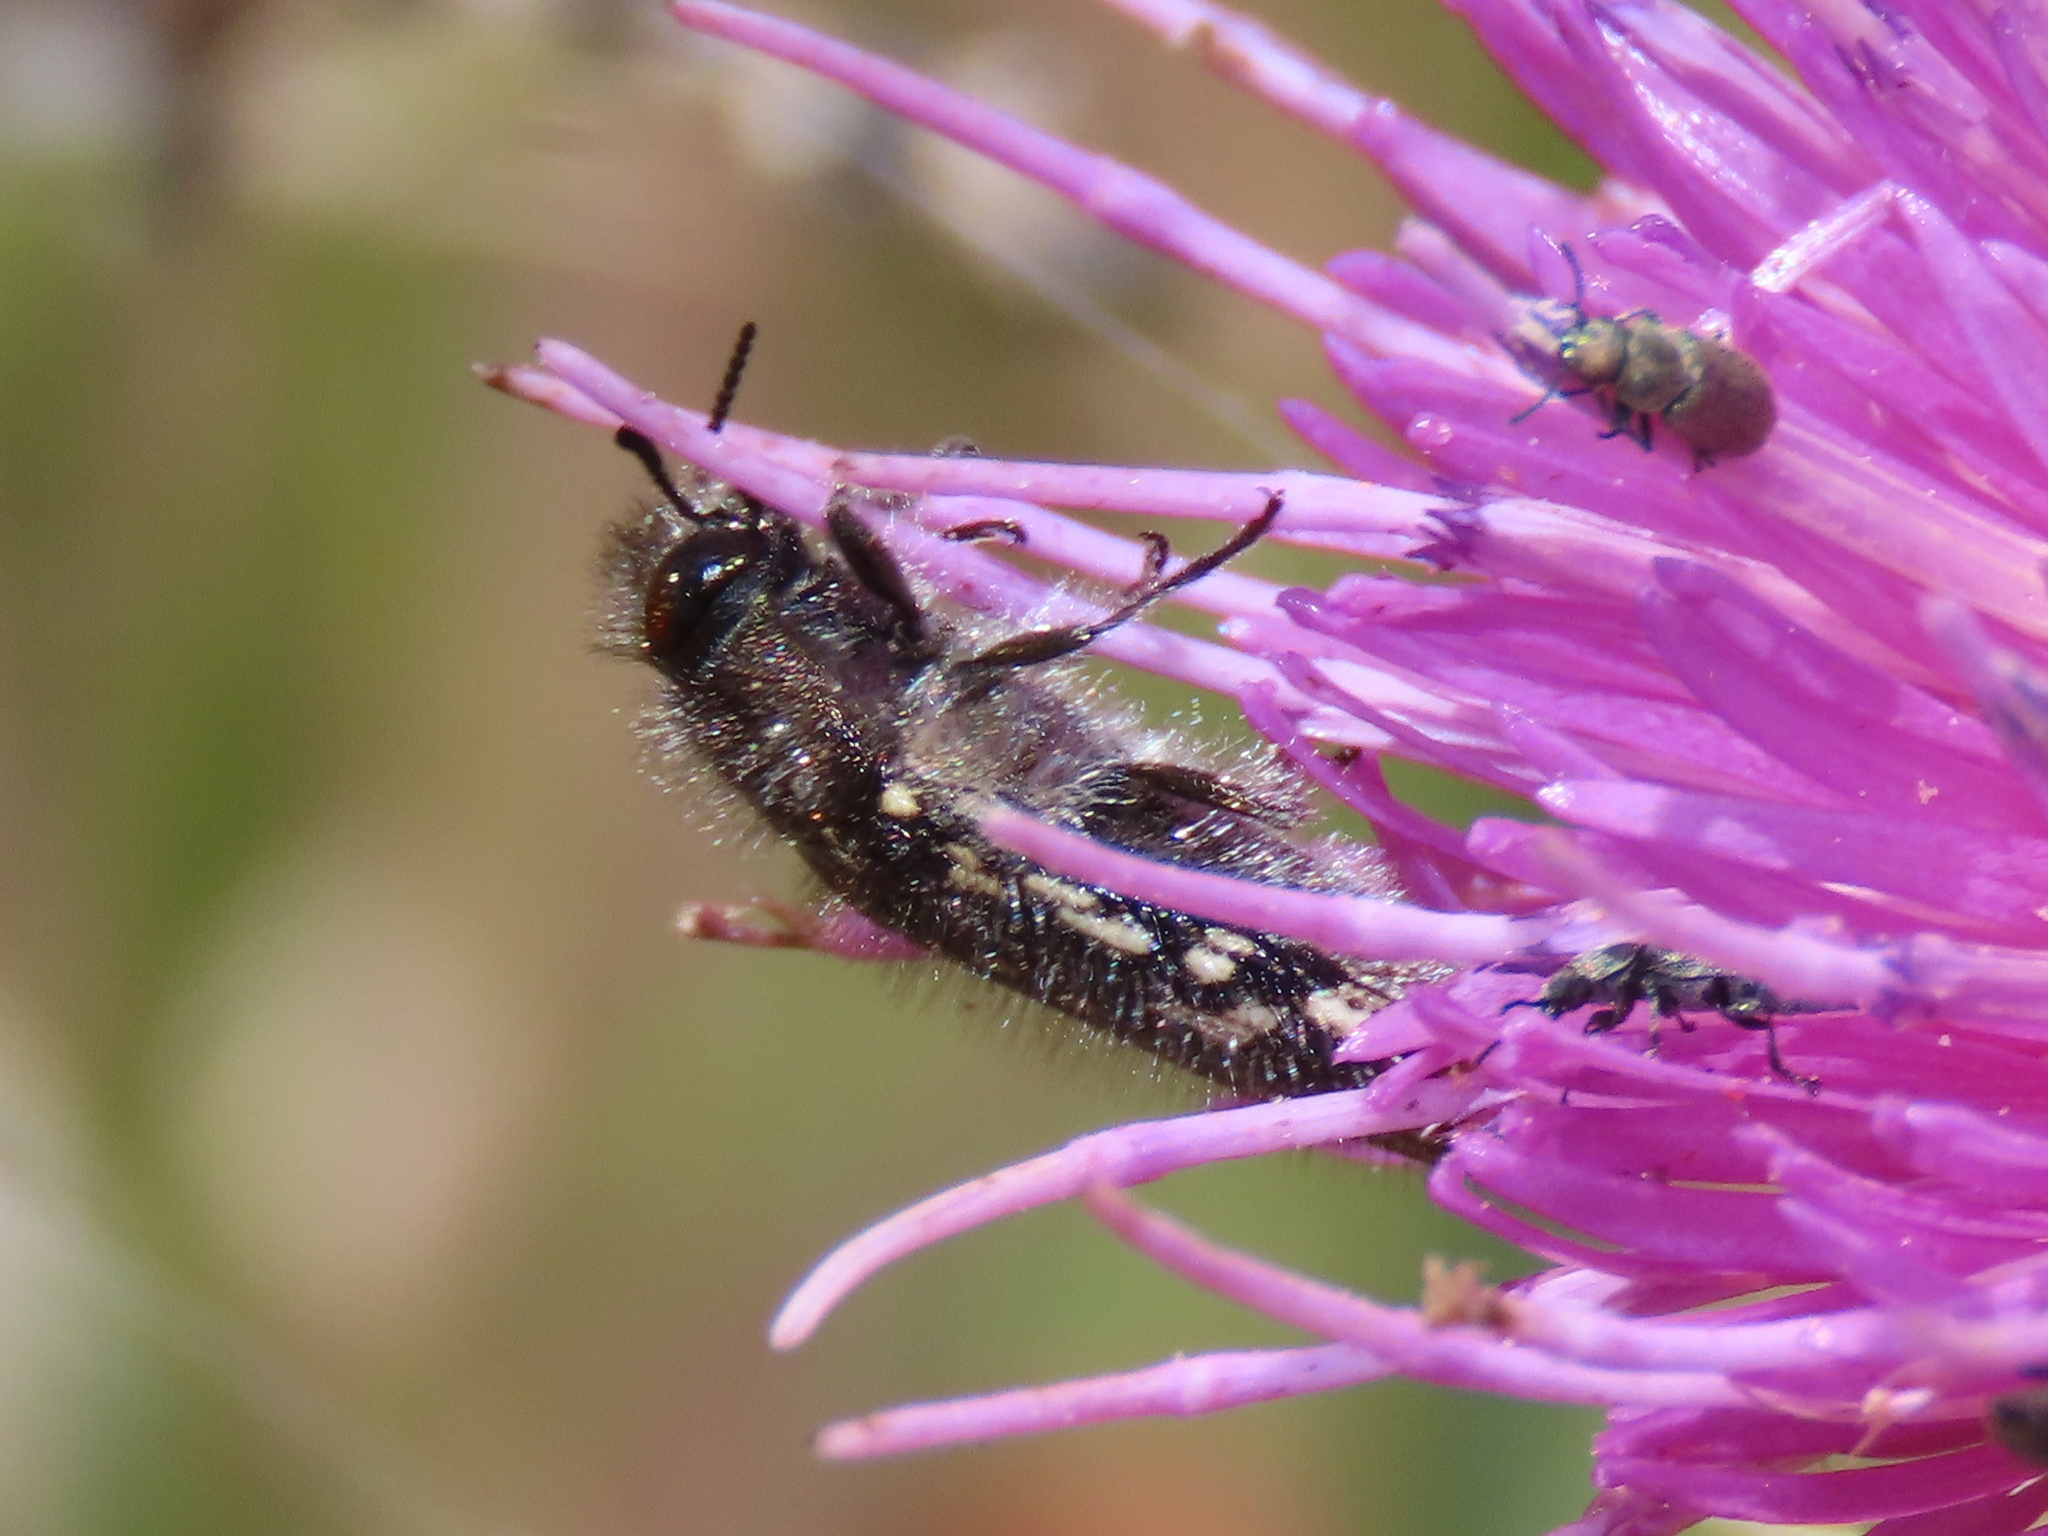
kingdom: Animalia
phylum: Arthropoda
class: Insecta
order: Coleoptera
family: Buprestidae
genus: Acmaeodera
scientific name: Acmaeodera rubronotata
